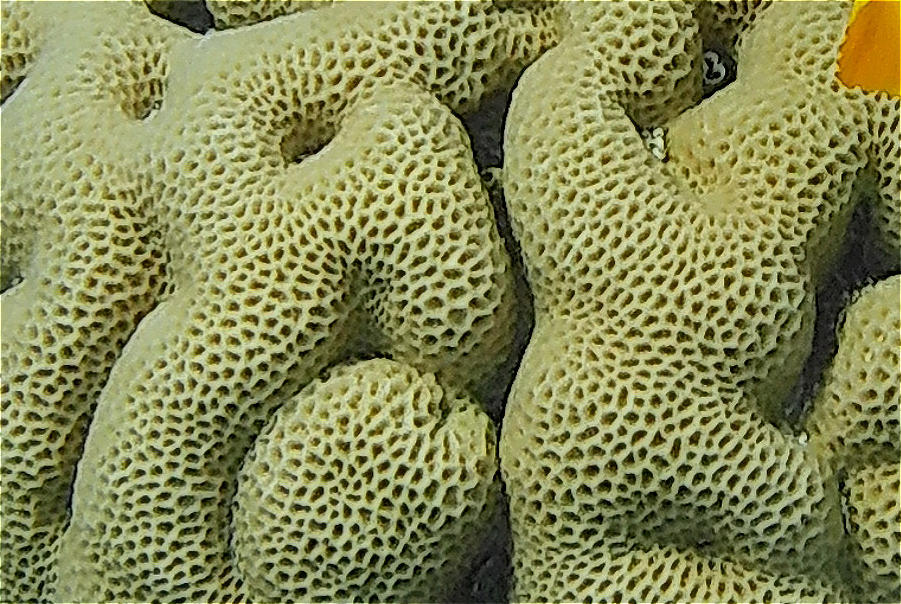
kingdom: Animalia
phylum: Cnidaria
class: Anthozoa
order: Scleractinia
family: Merulinidae
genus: Goniastrea
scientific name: Goniastrea pectinata
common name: Lesser star coral
